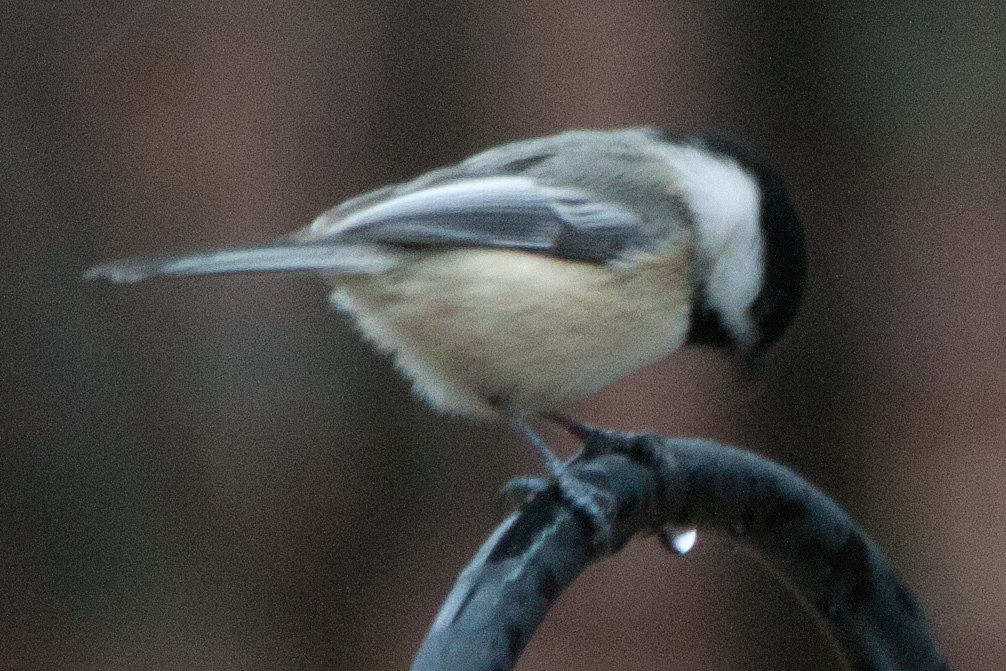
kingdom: Animalia
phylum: Chordata
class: Aves
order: Passeriformes
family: Paridae
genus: Poecile
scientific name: Poecile atricapillus
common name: Black-capped chickadee
